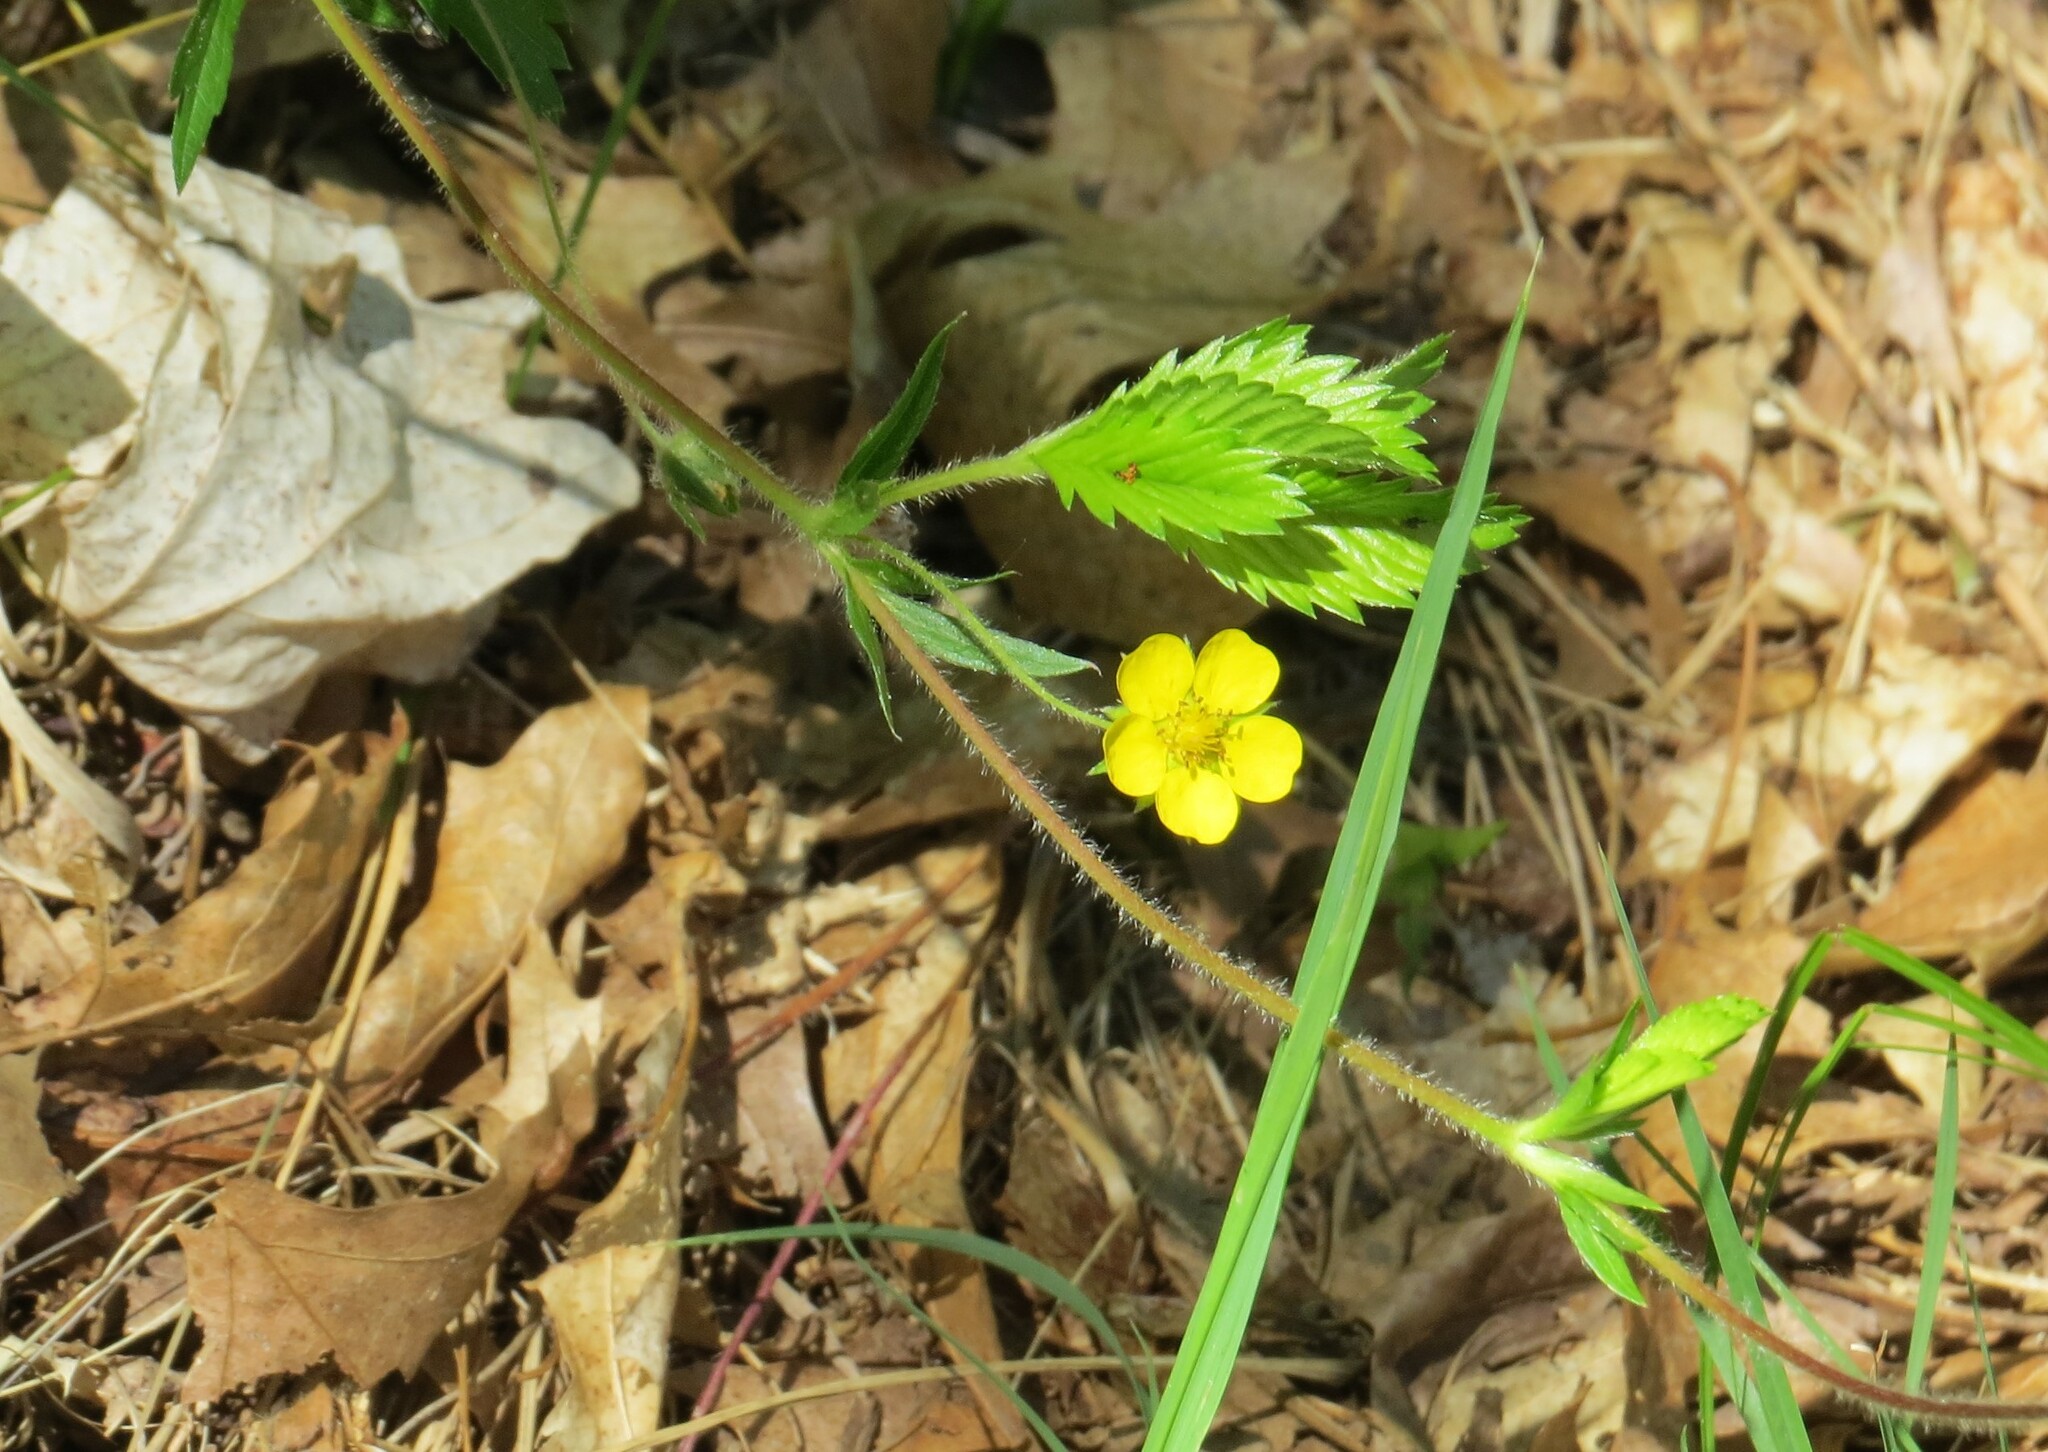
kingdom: Plantae
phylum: Tracheophyta
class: Magnoliopsida
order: Rosales
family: Rosaceae
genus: Potentilla
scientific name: Potentilla simplex
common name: Old field cinquefoil
